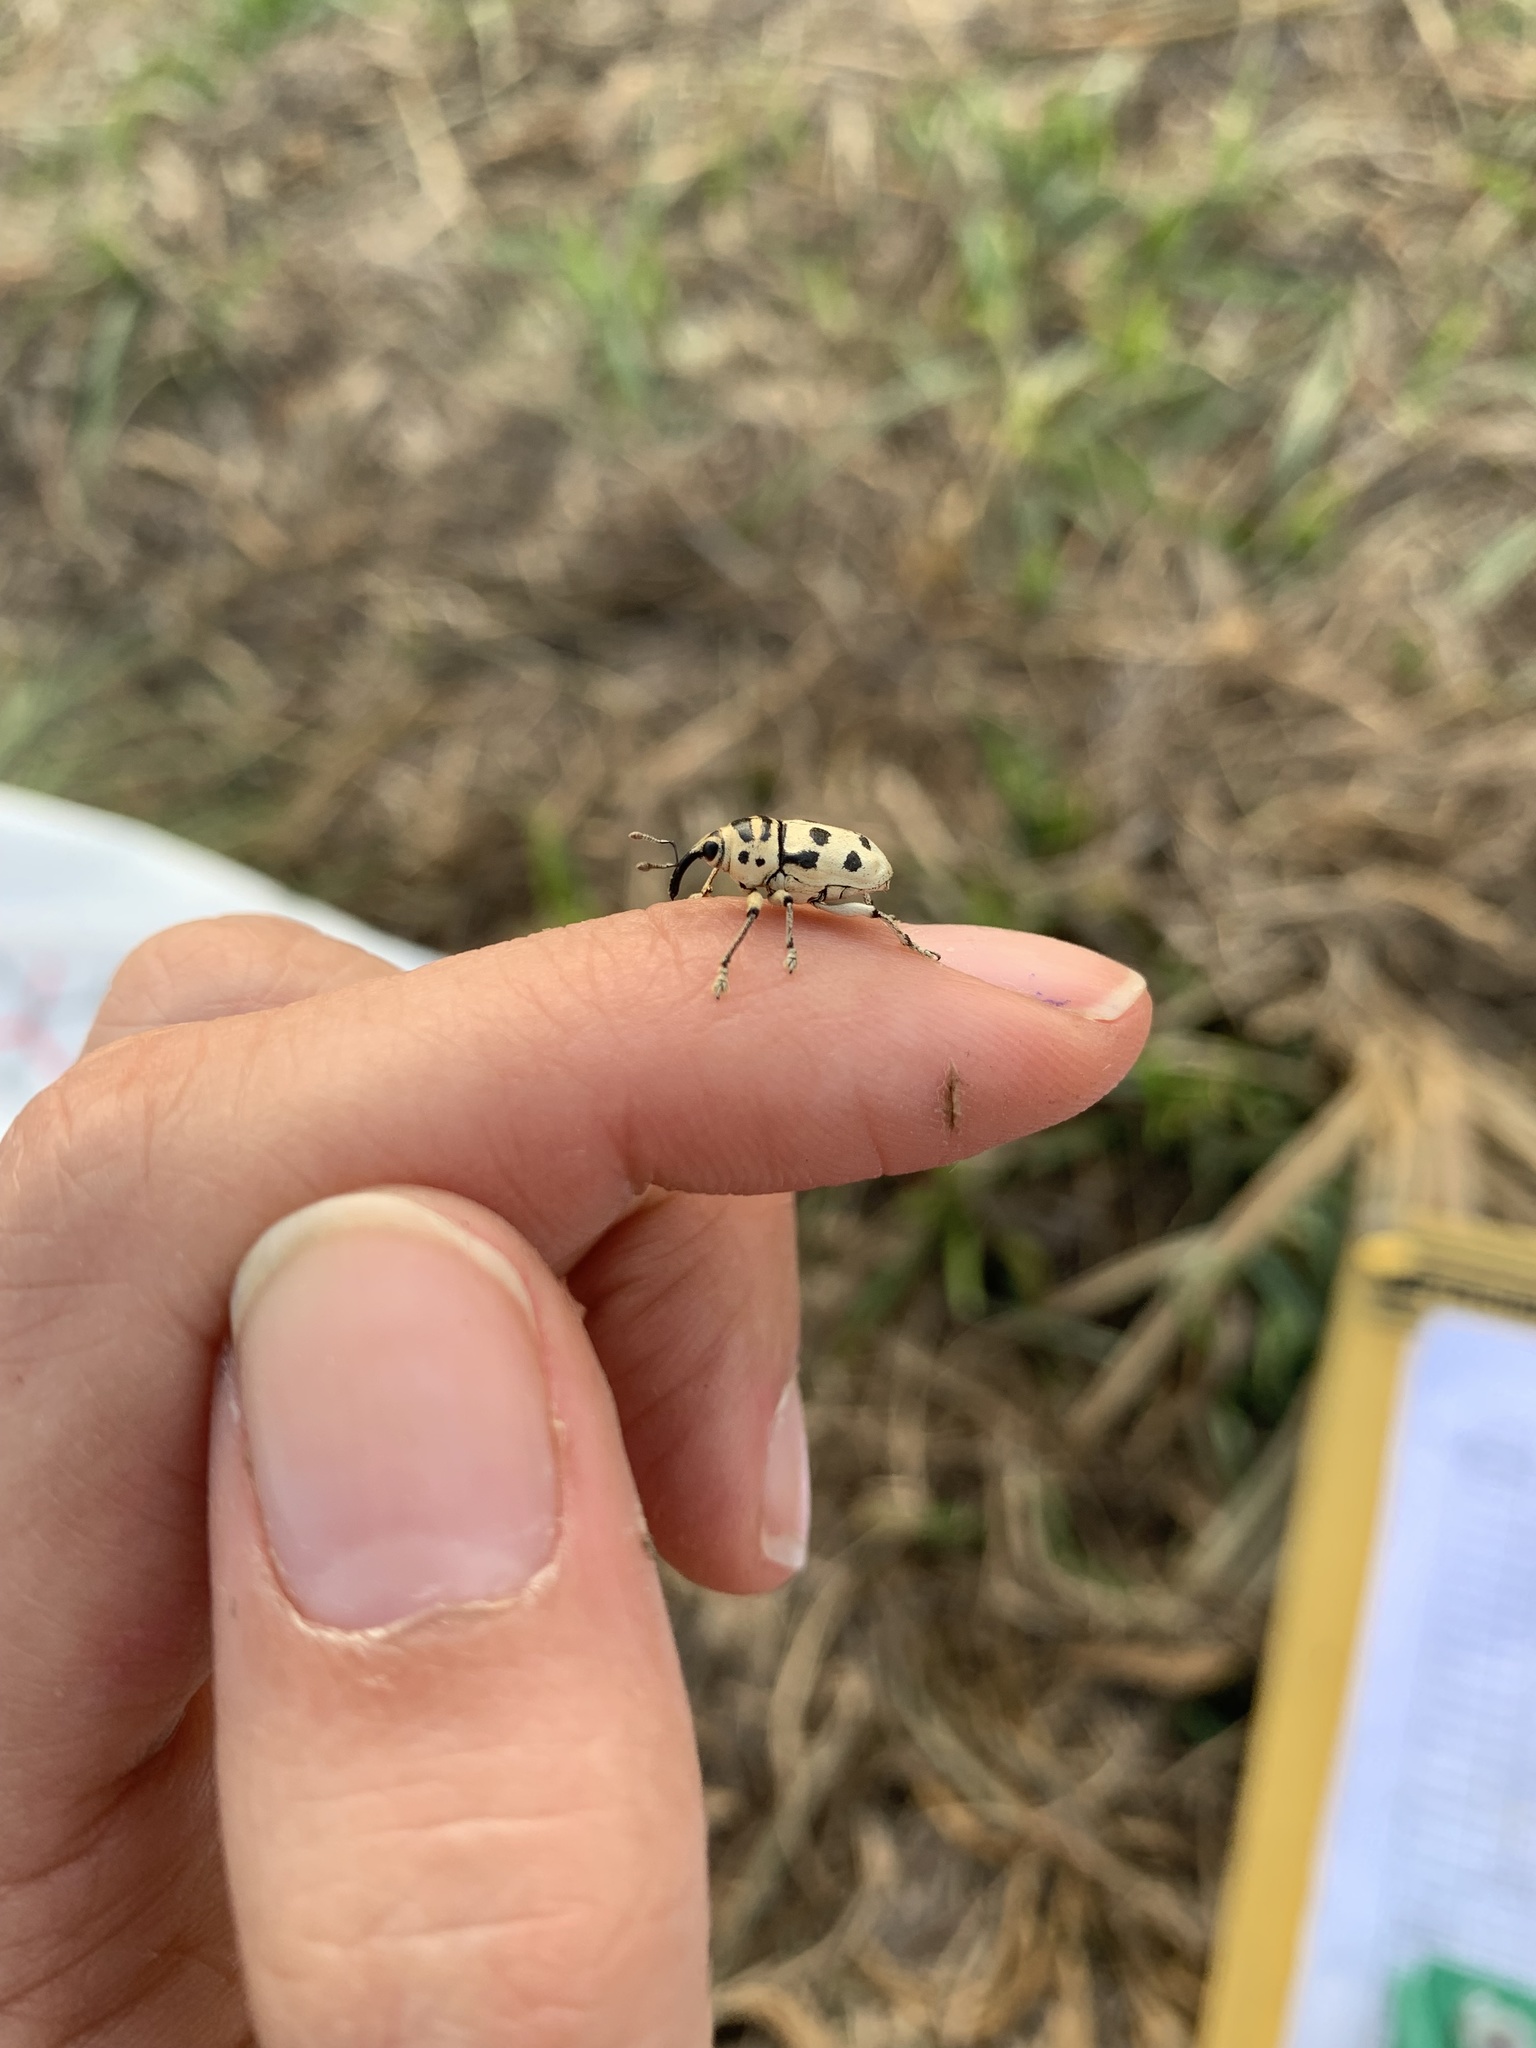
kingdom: Animalia
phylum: Arthropoda
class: Insecta
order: Coleoptera
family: Curculionidae
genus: Cholus
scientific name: Cholus boisduvali
